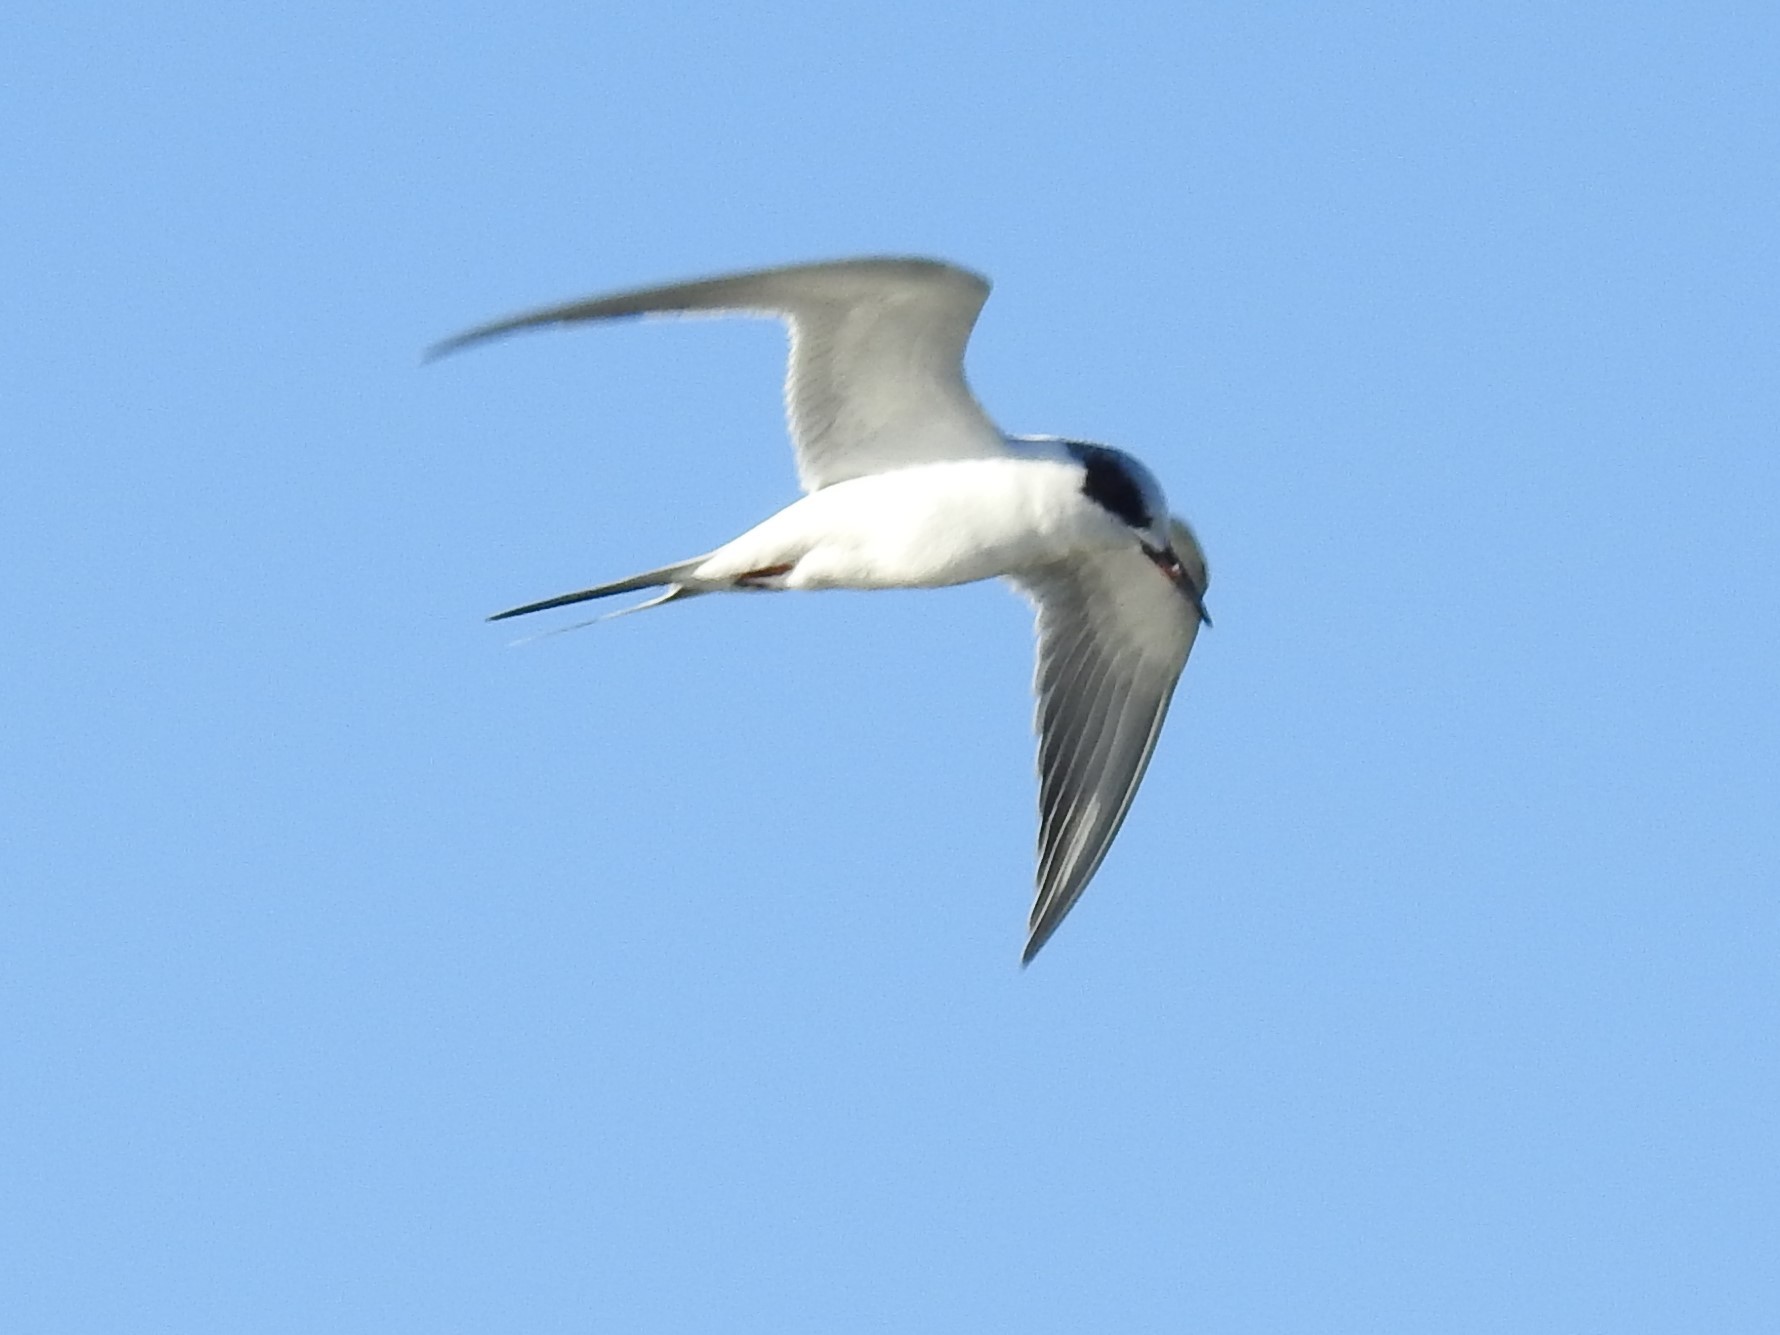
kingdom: Animalia
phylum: Chordata
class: Aves
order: Charadriiformes
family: Laridae
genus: Sterna
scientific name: Sterna forsteri
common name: Forster's tern
